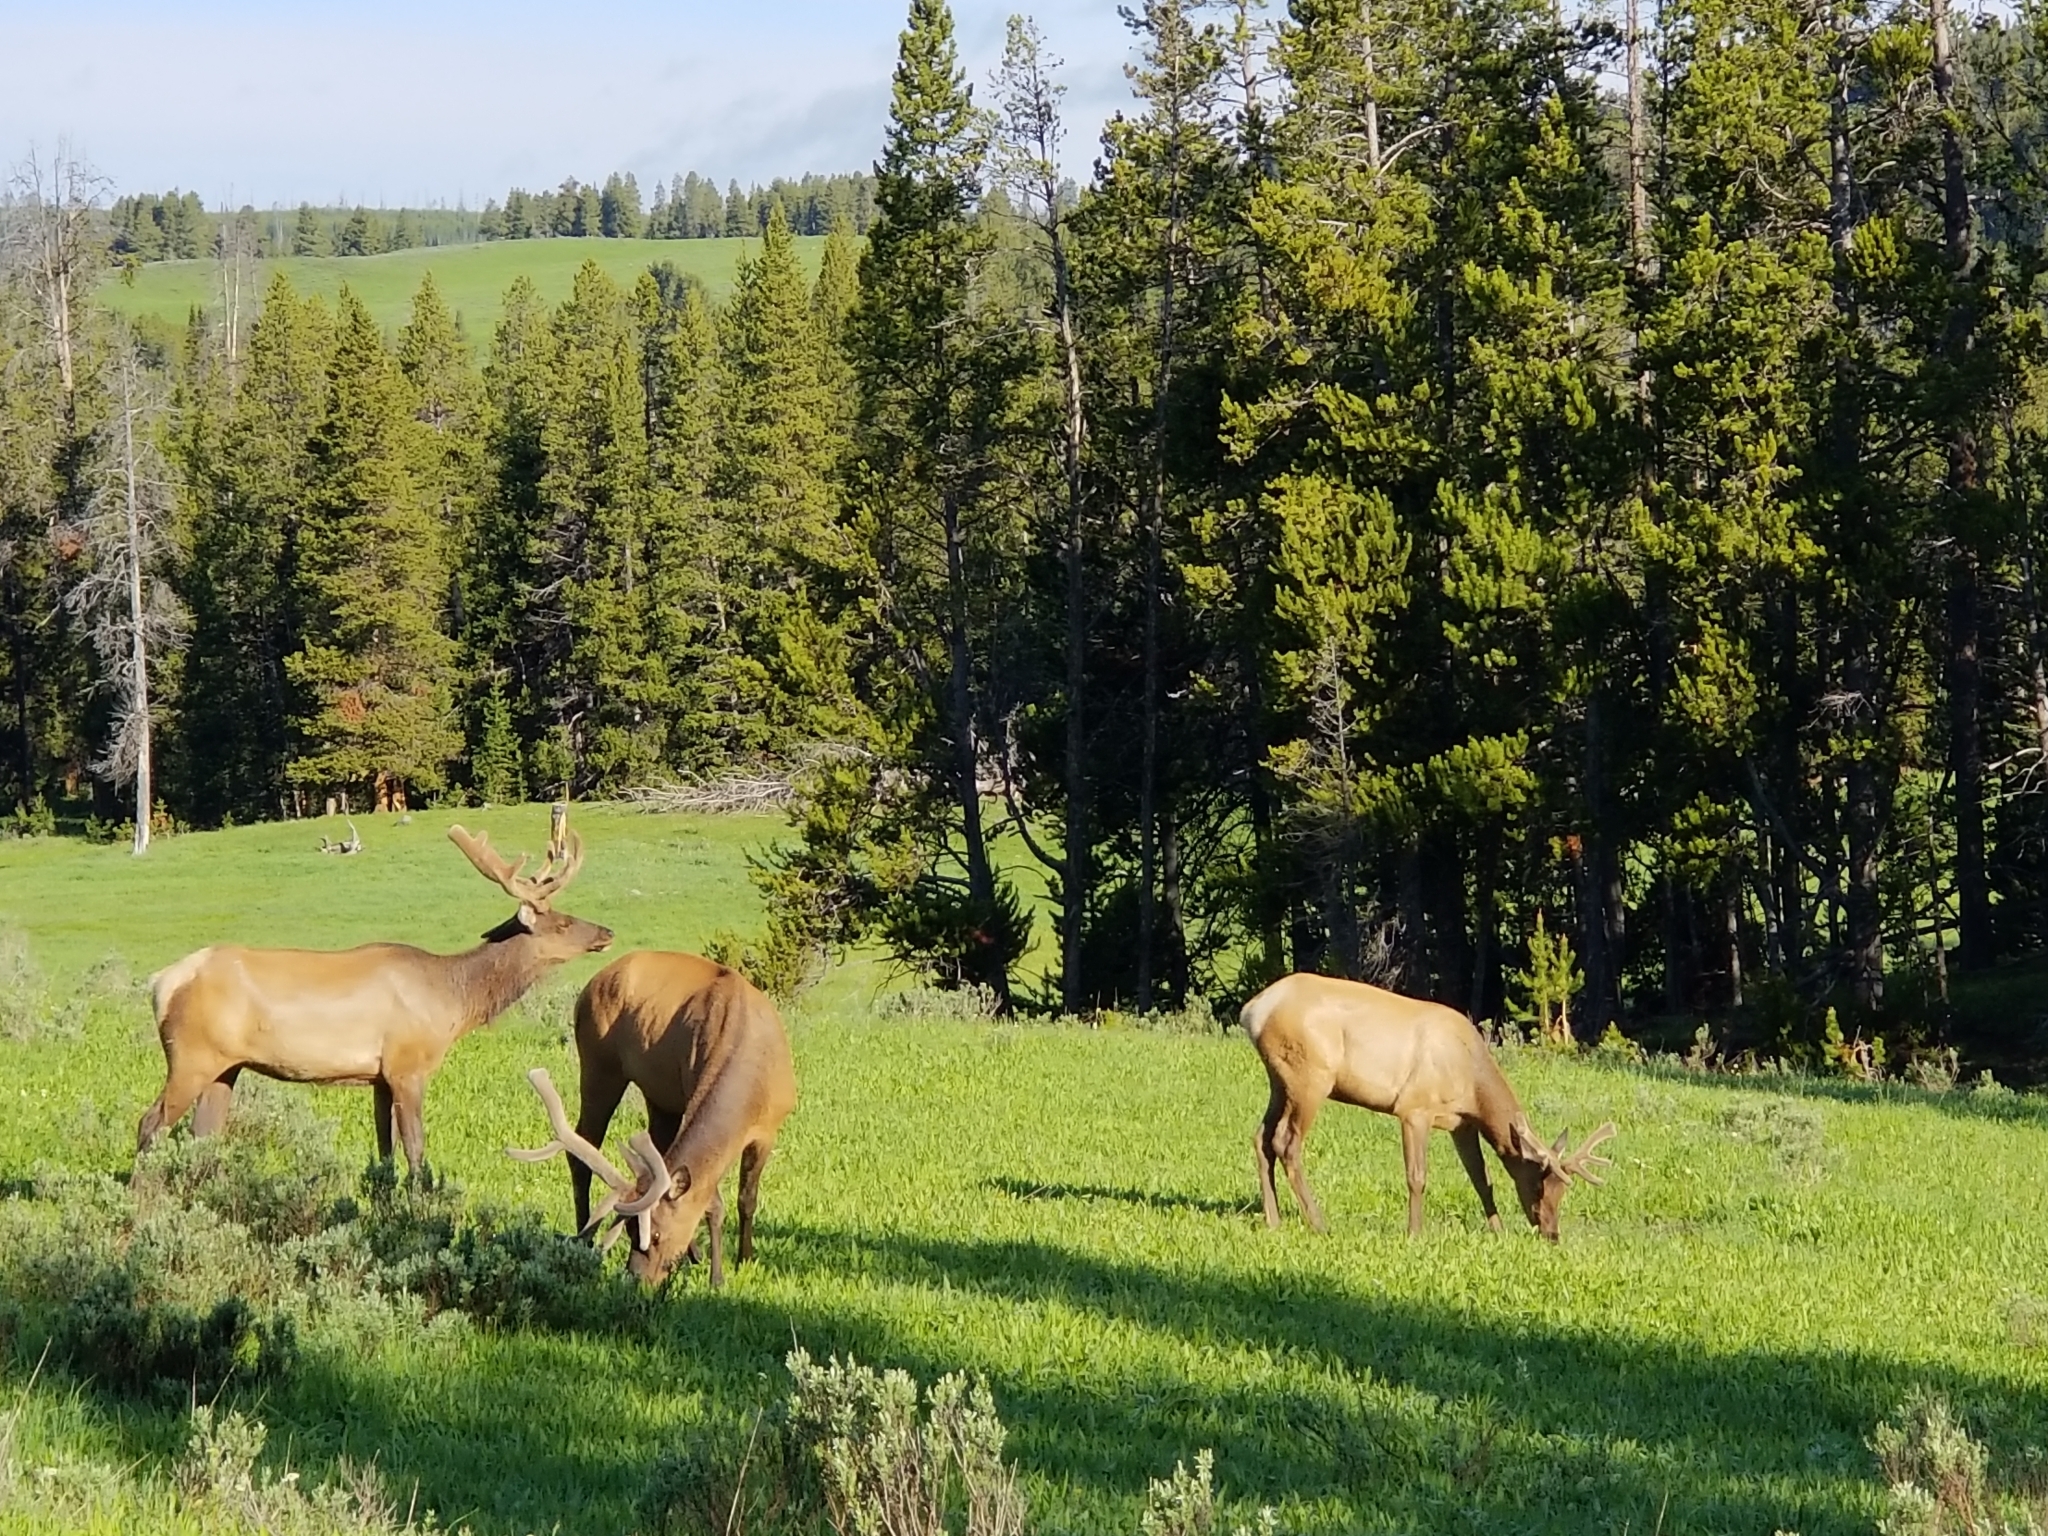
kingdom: Animalia
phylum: Chordata
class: Mammalia
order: Artiodactyla
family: Cervidae
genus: Cervus
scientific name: Cervus elaphus
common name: Red deer
